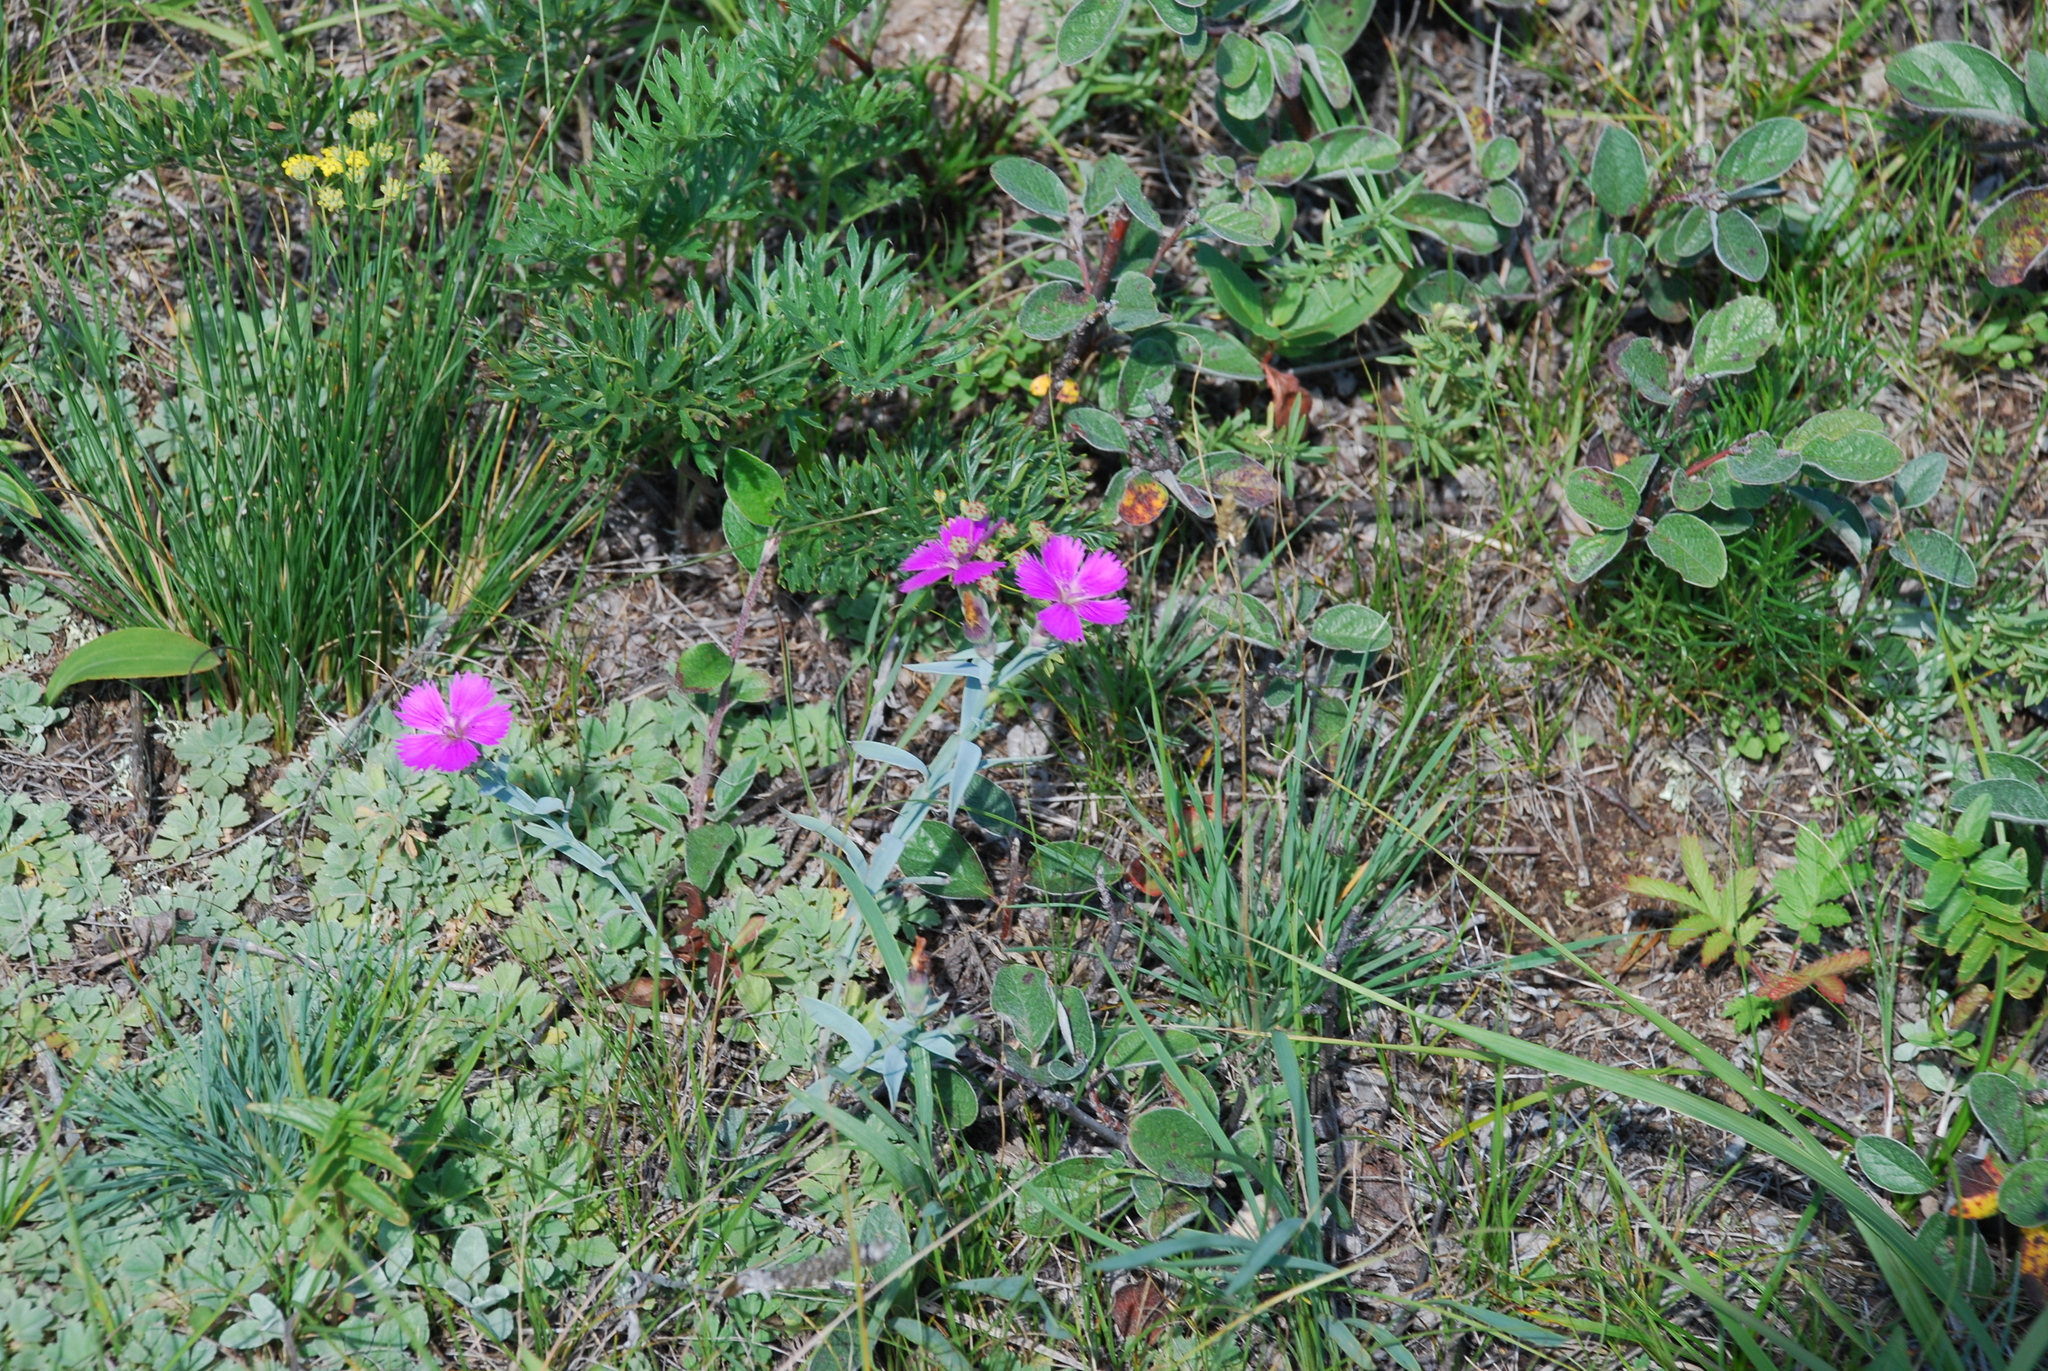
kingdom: Plantae
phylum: Tracheophyta
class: Magnoliopsida
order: Caryophyllales
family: Caryophyllaceae
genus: Dianthus
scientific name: Dianthus chinensis
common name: Rainbow pink
